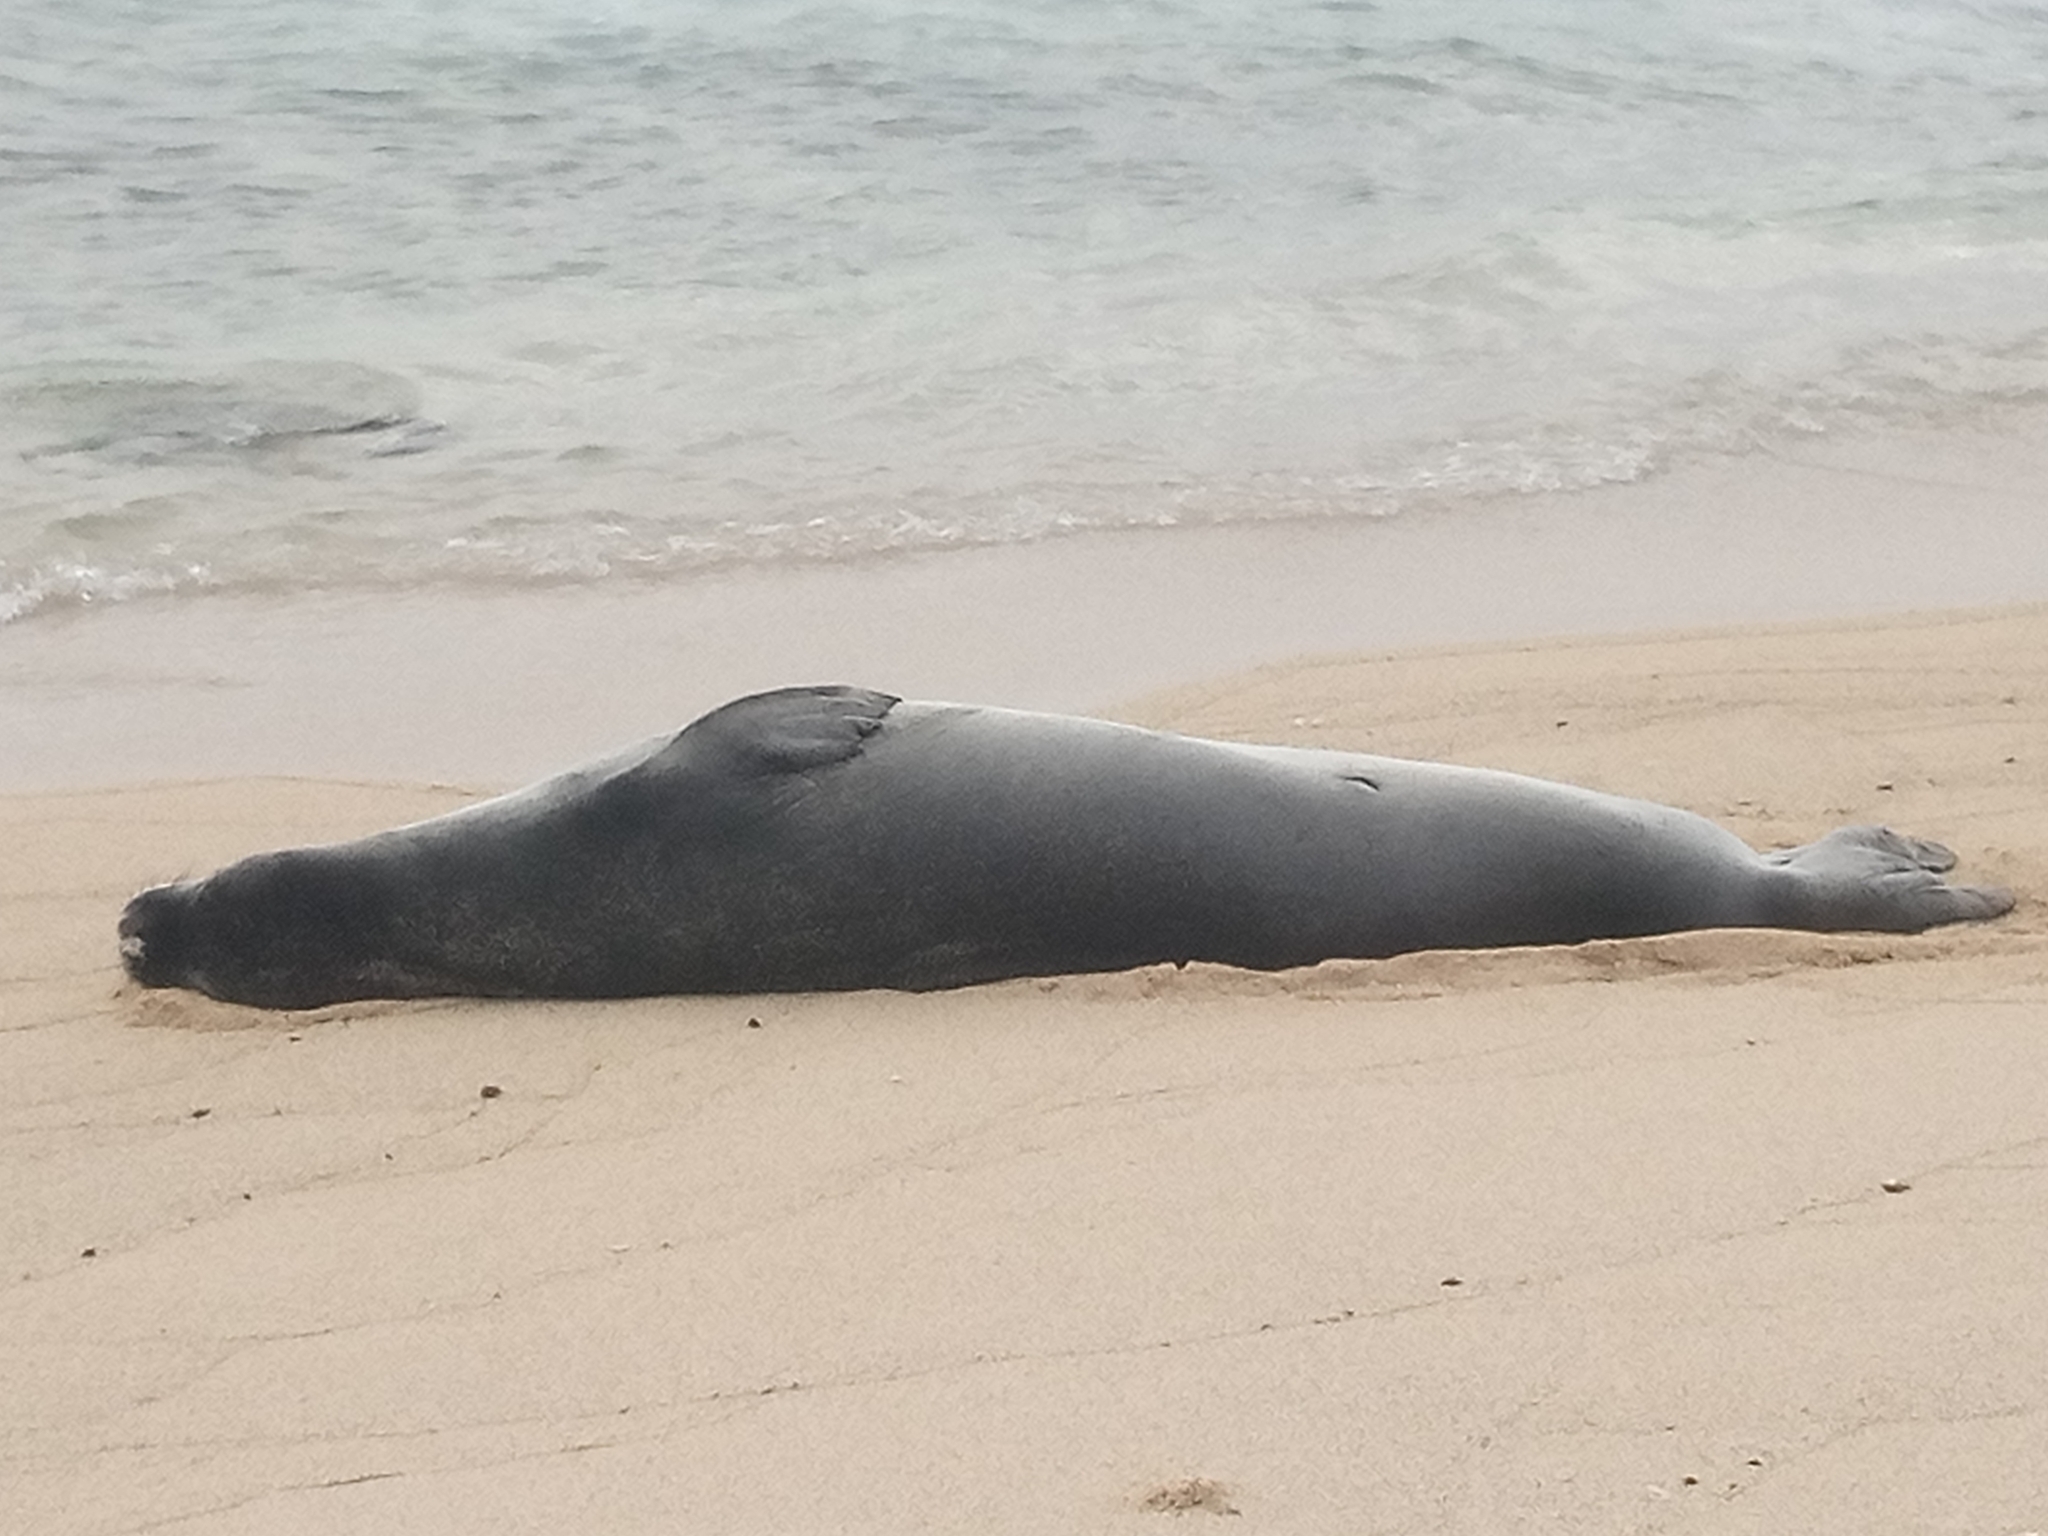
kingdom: Animalia
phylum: Chordata
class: Mammalia
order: Carnivora
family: Phocidae
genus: Neomonachus
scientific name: Neomonachus schauinslandi
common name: Hawaiian monk seal
